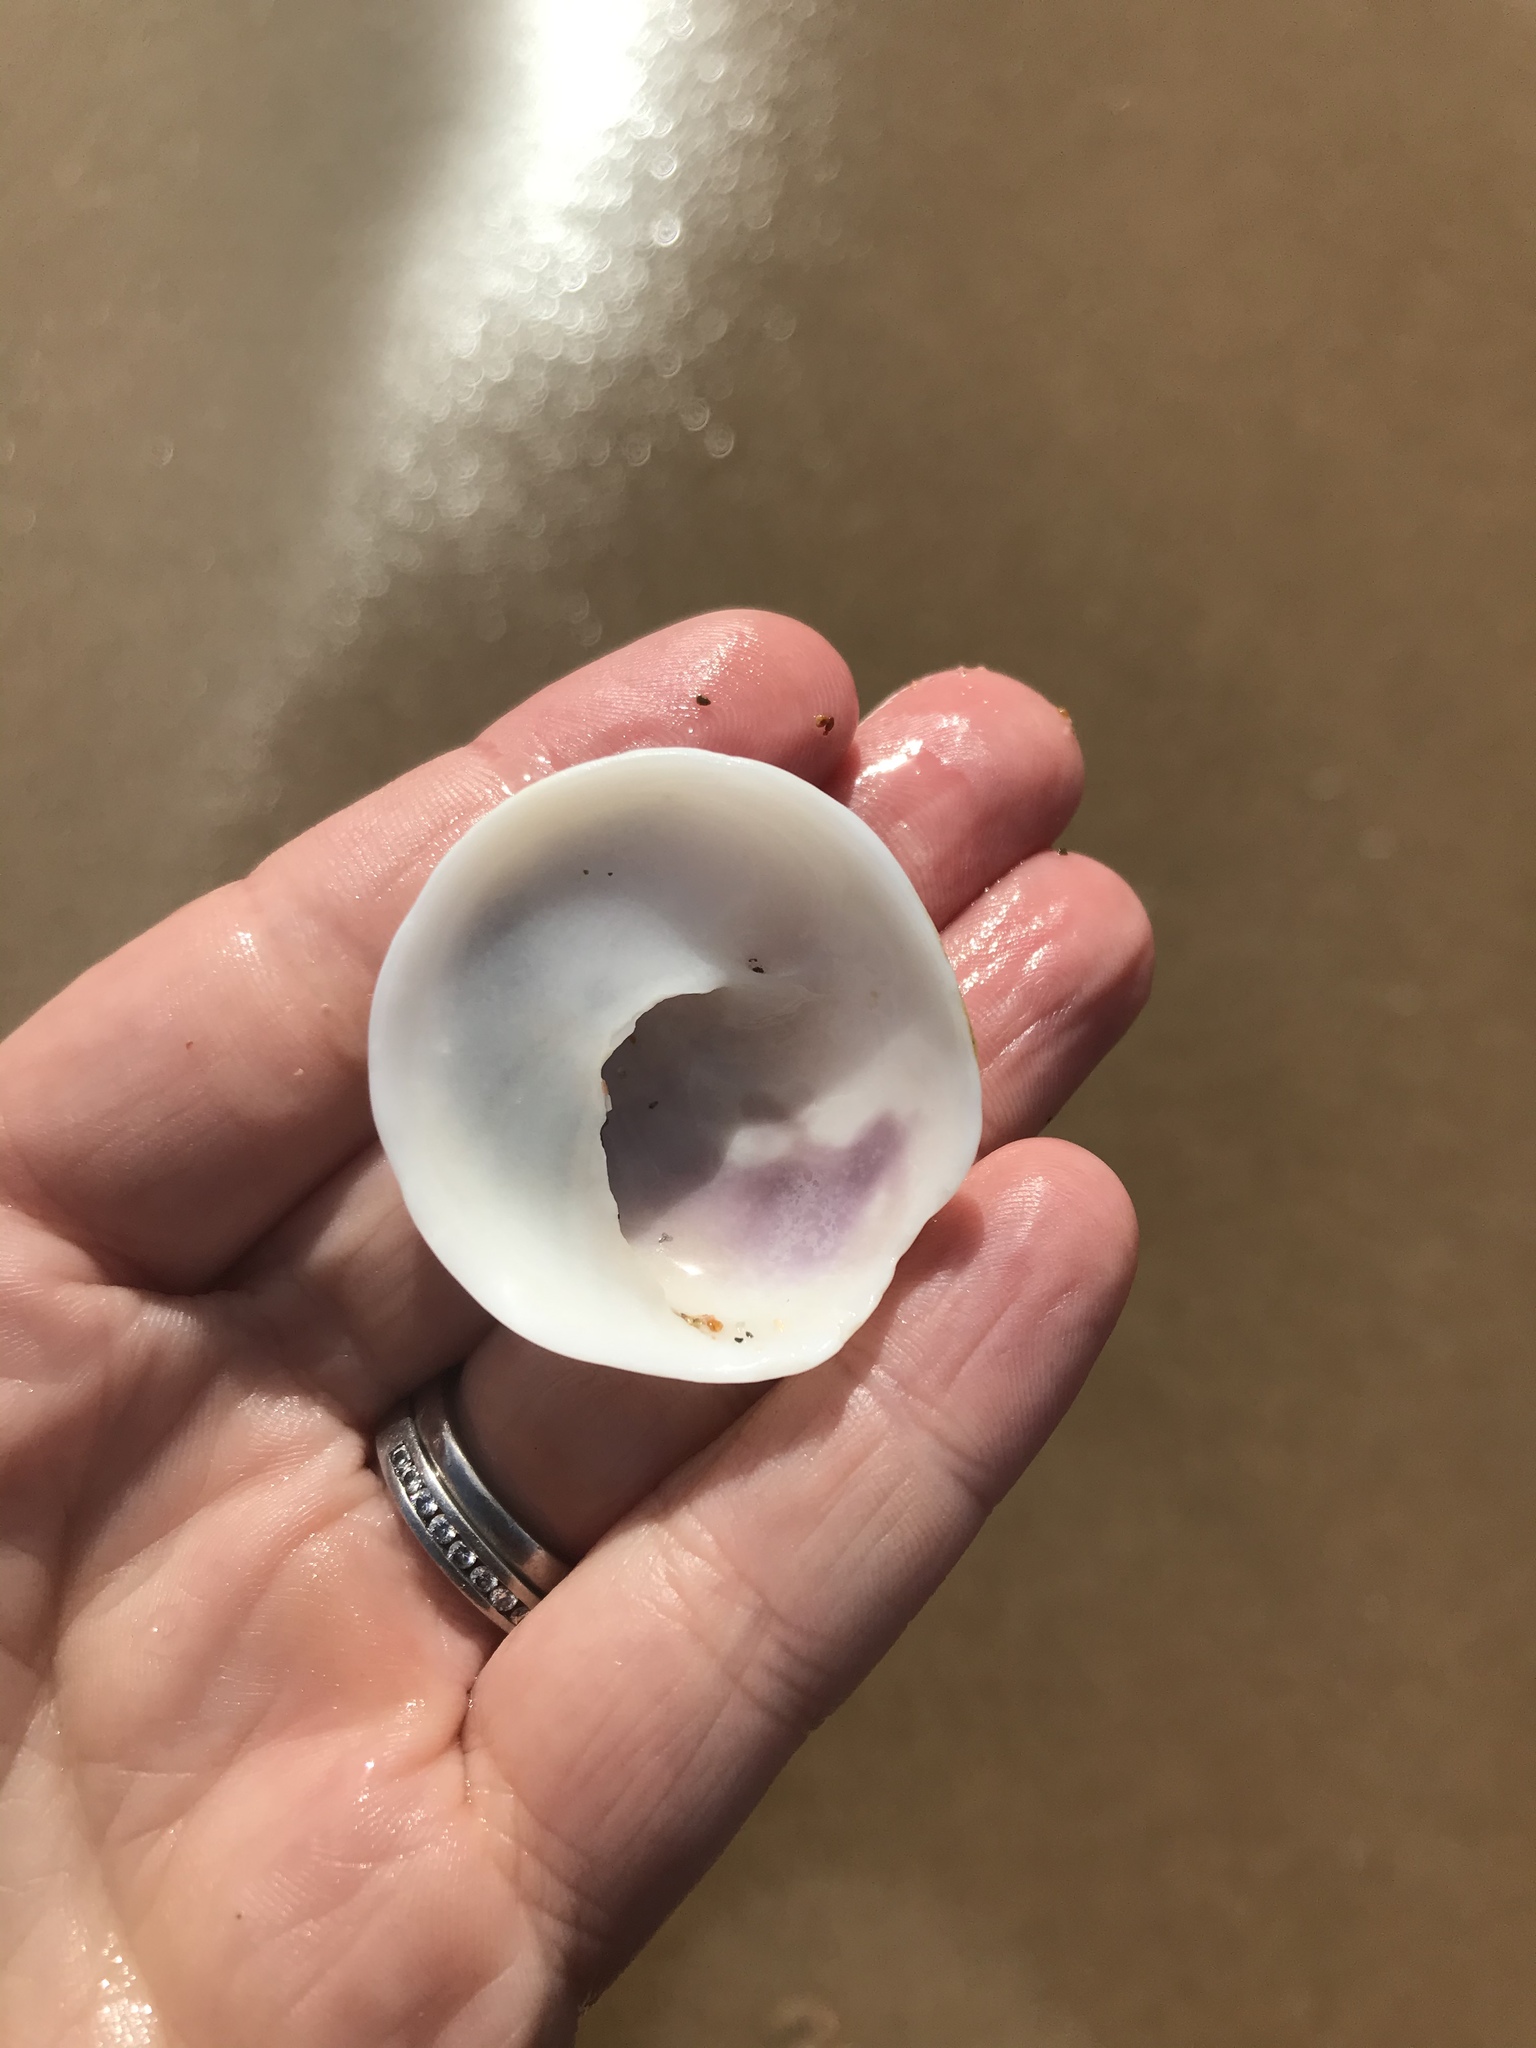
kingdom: Animalia
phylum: Mollusca
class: Gastropoda
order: Littorinimorpha
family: Calyptraeidae
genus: Sigapatella
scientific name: Sigapatella novaezelandiae
